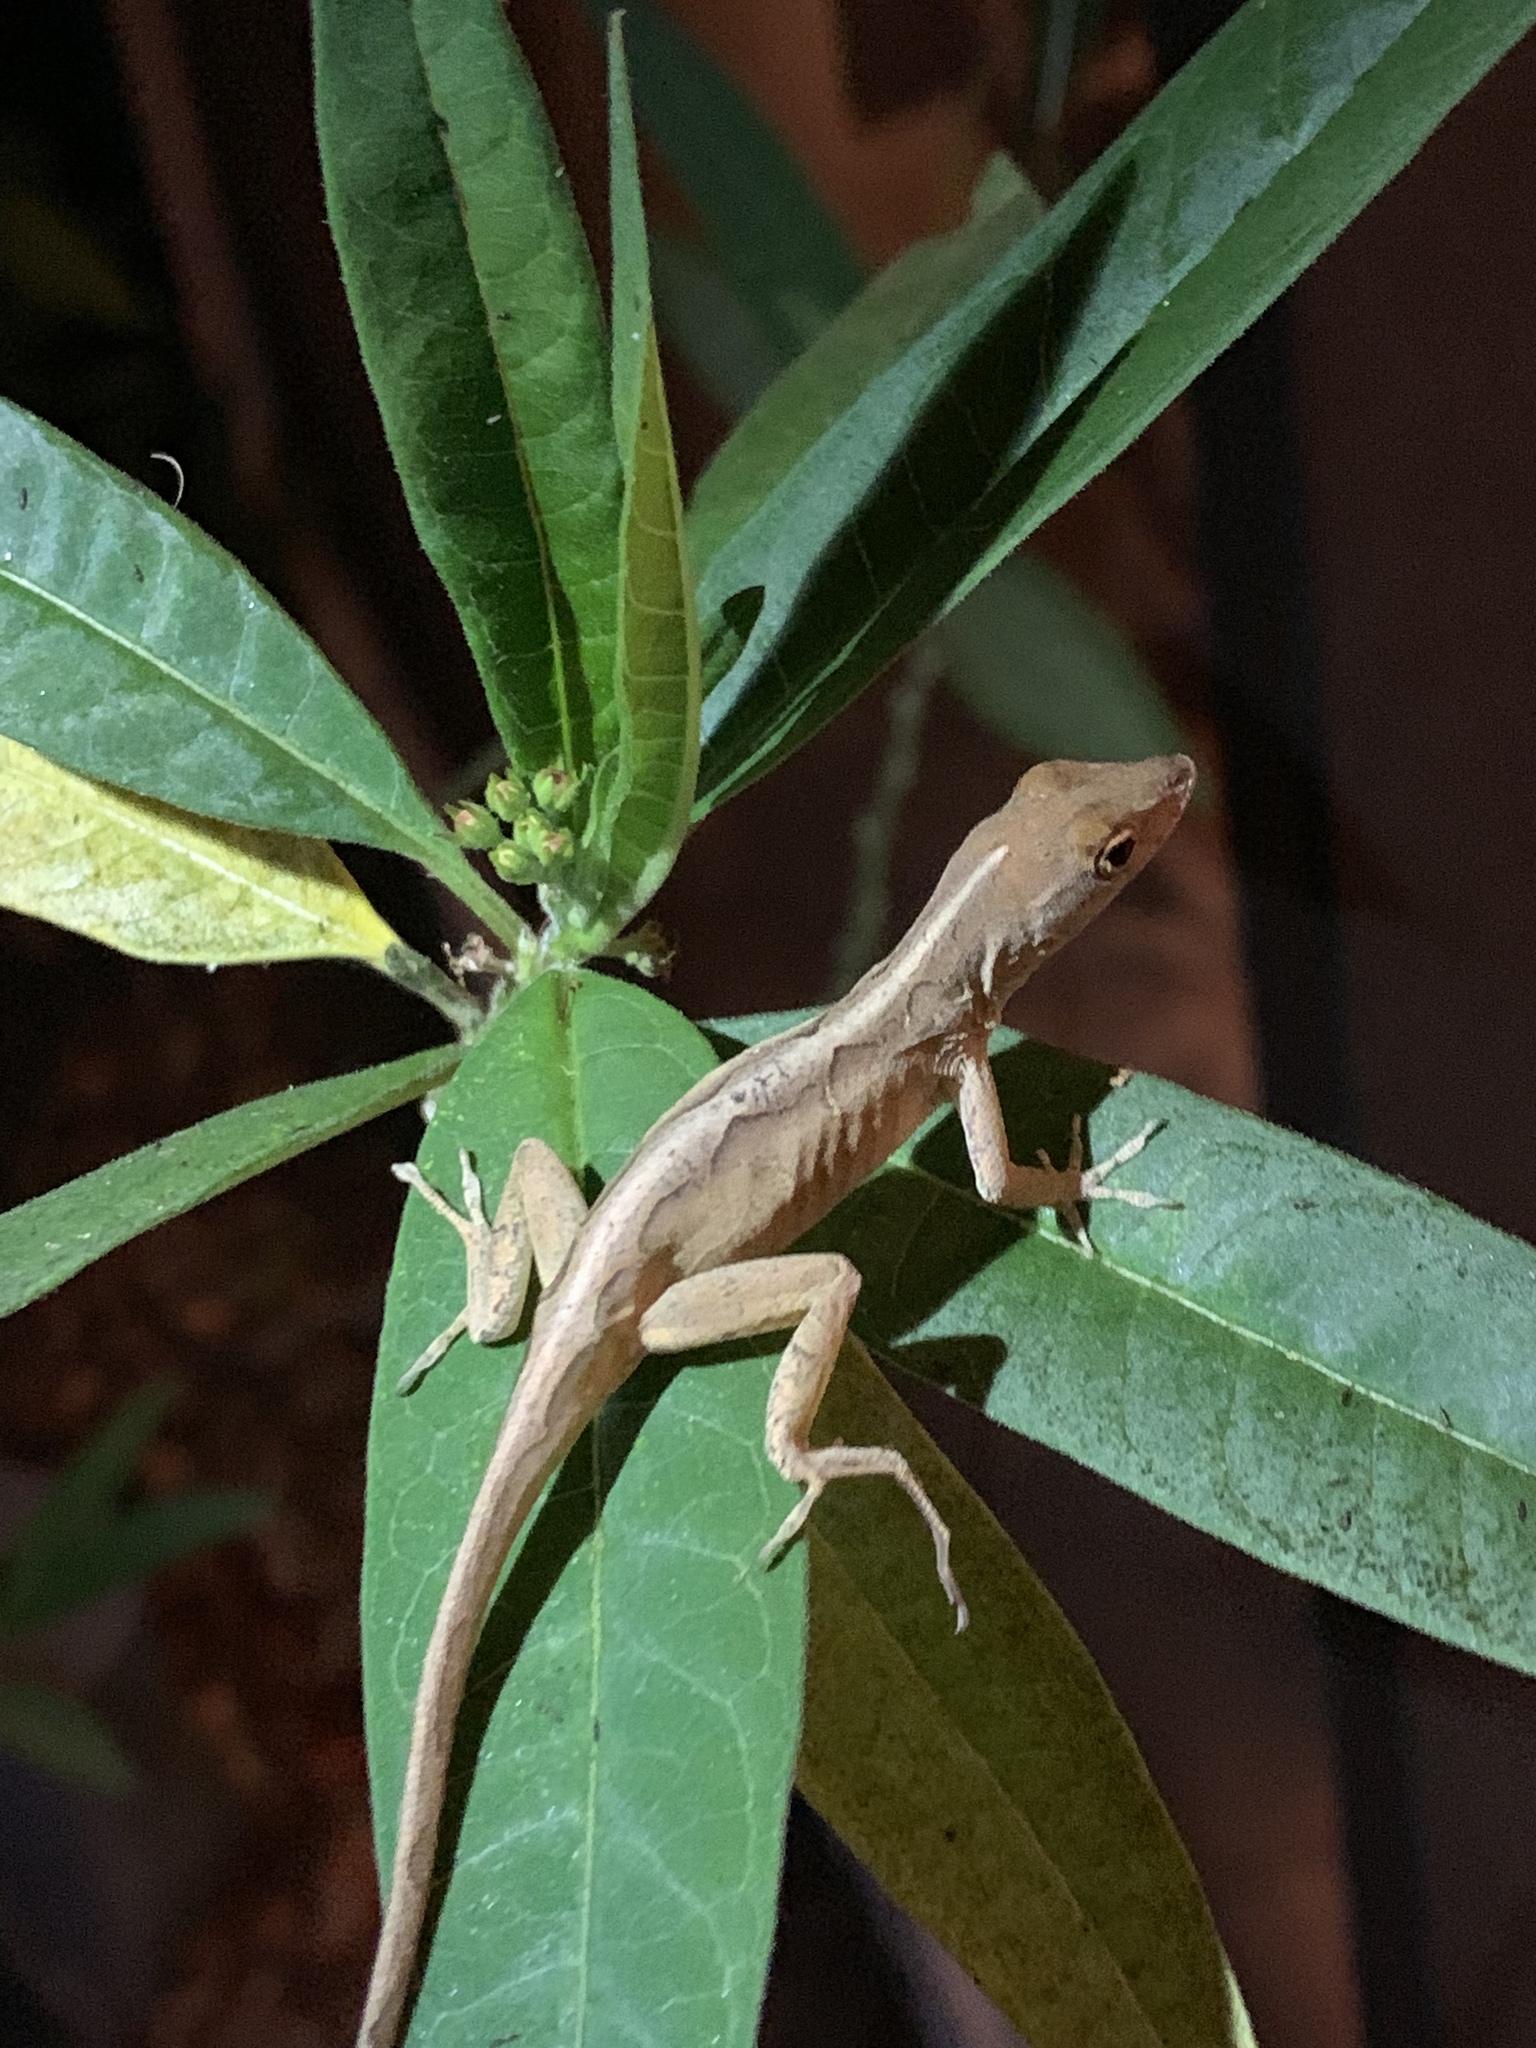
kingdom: Animalia
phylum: Chordata
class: Squamata
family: Dactyloidae
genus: Anolis
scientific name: Anolis sagrei
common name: Brown anole
